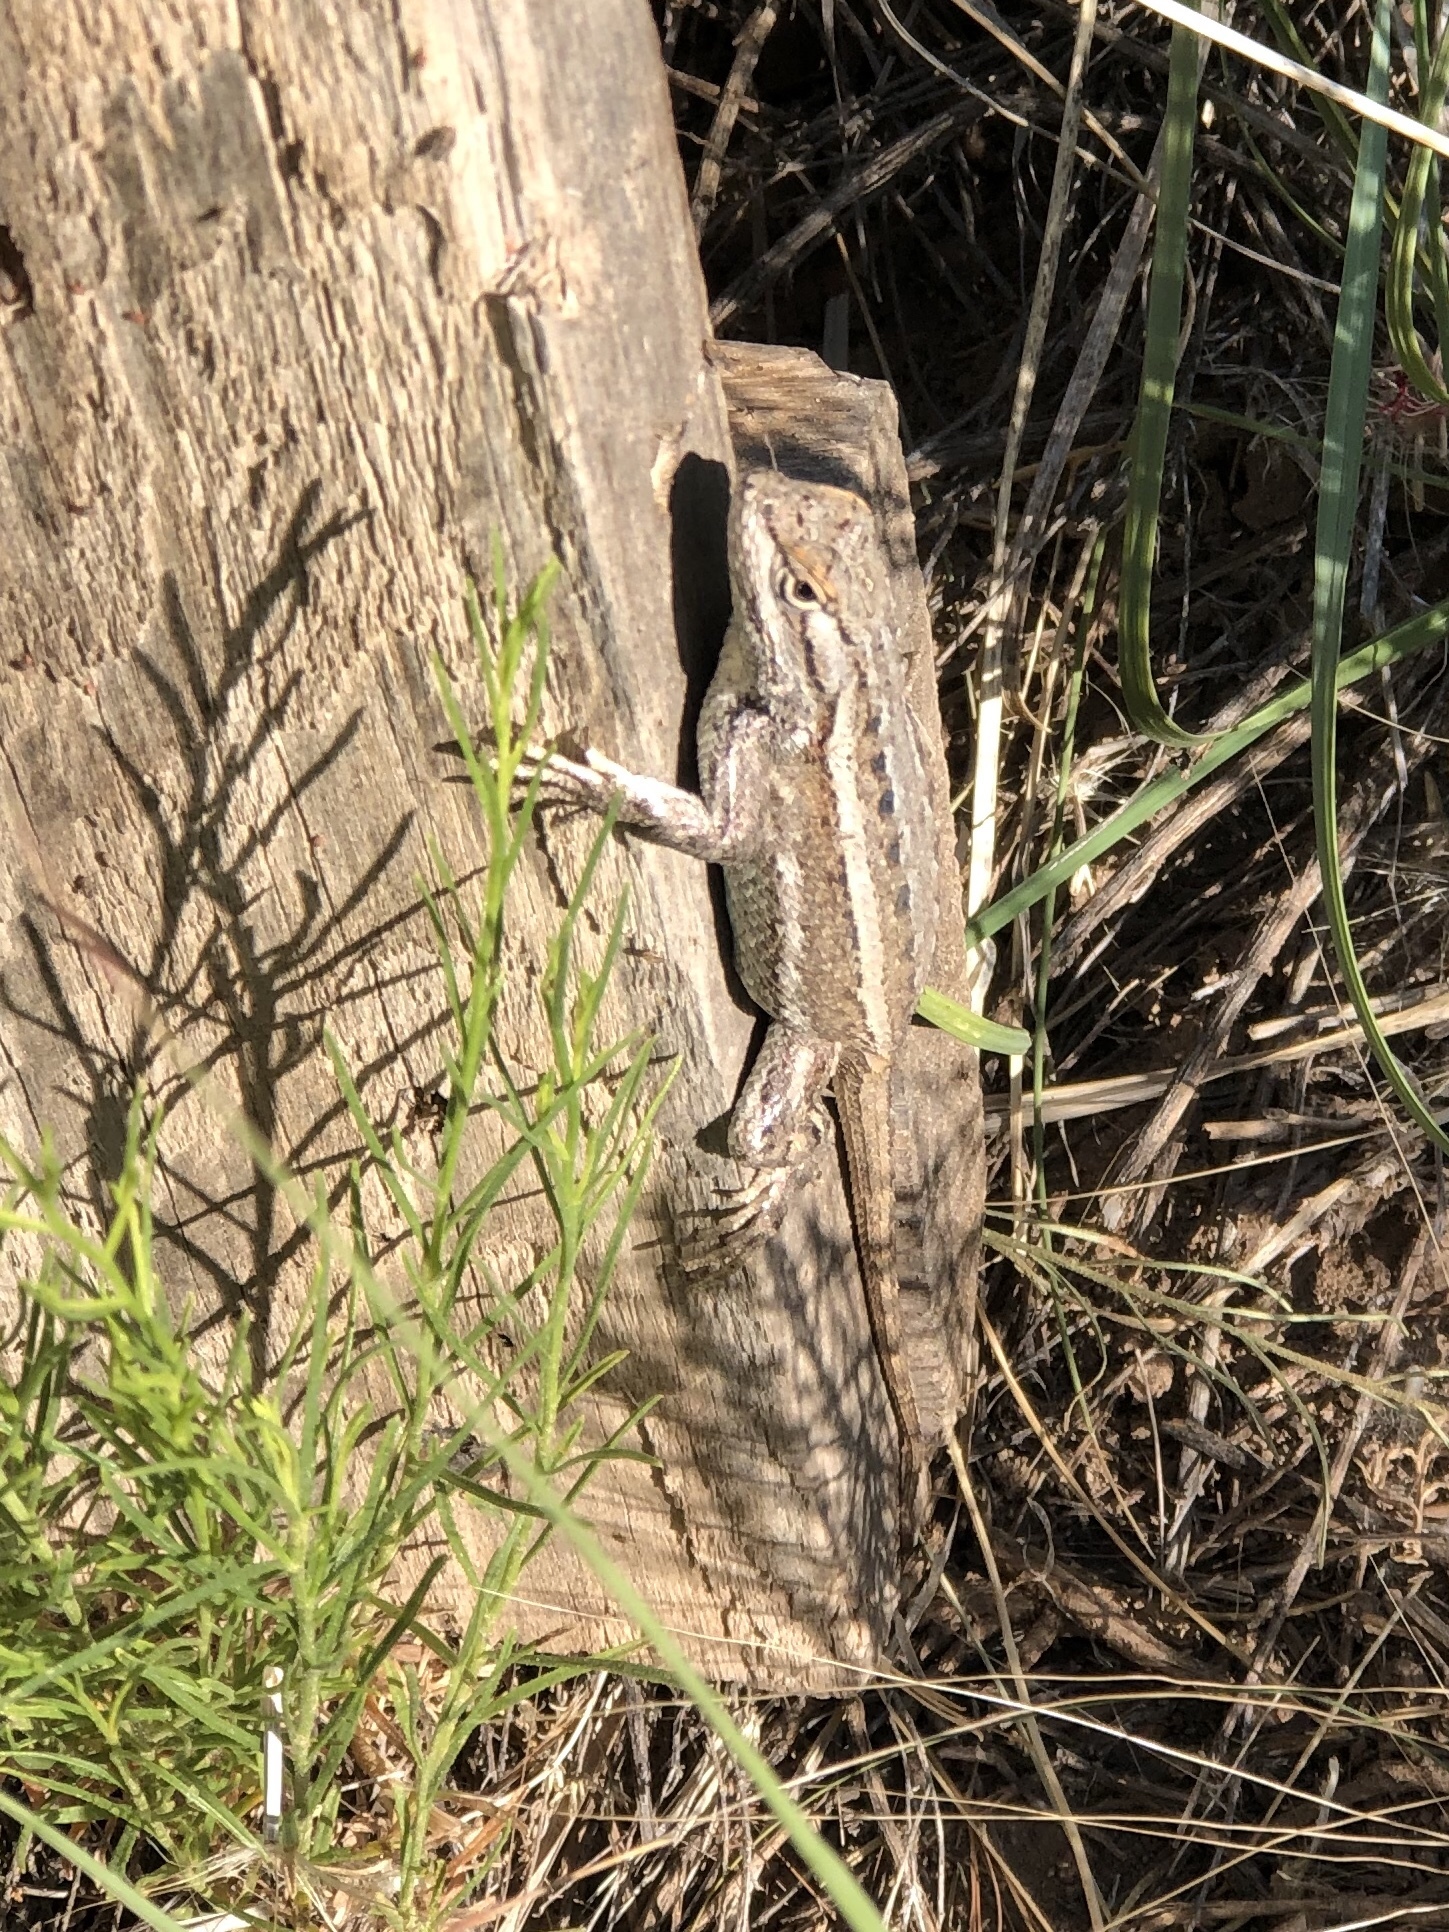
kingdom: Animalia
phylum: Chordata
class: Squamata
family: Phrynosomatidae
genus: Sceloporus
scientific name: Sceloporus cowlesi
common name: White sands prairie lizard
